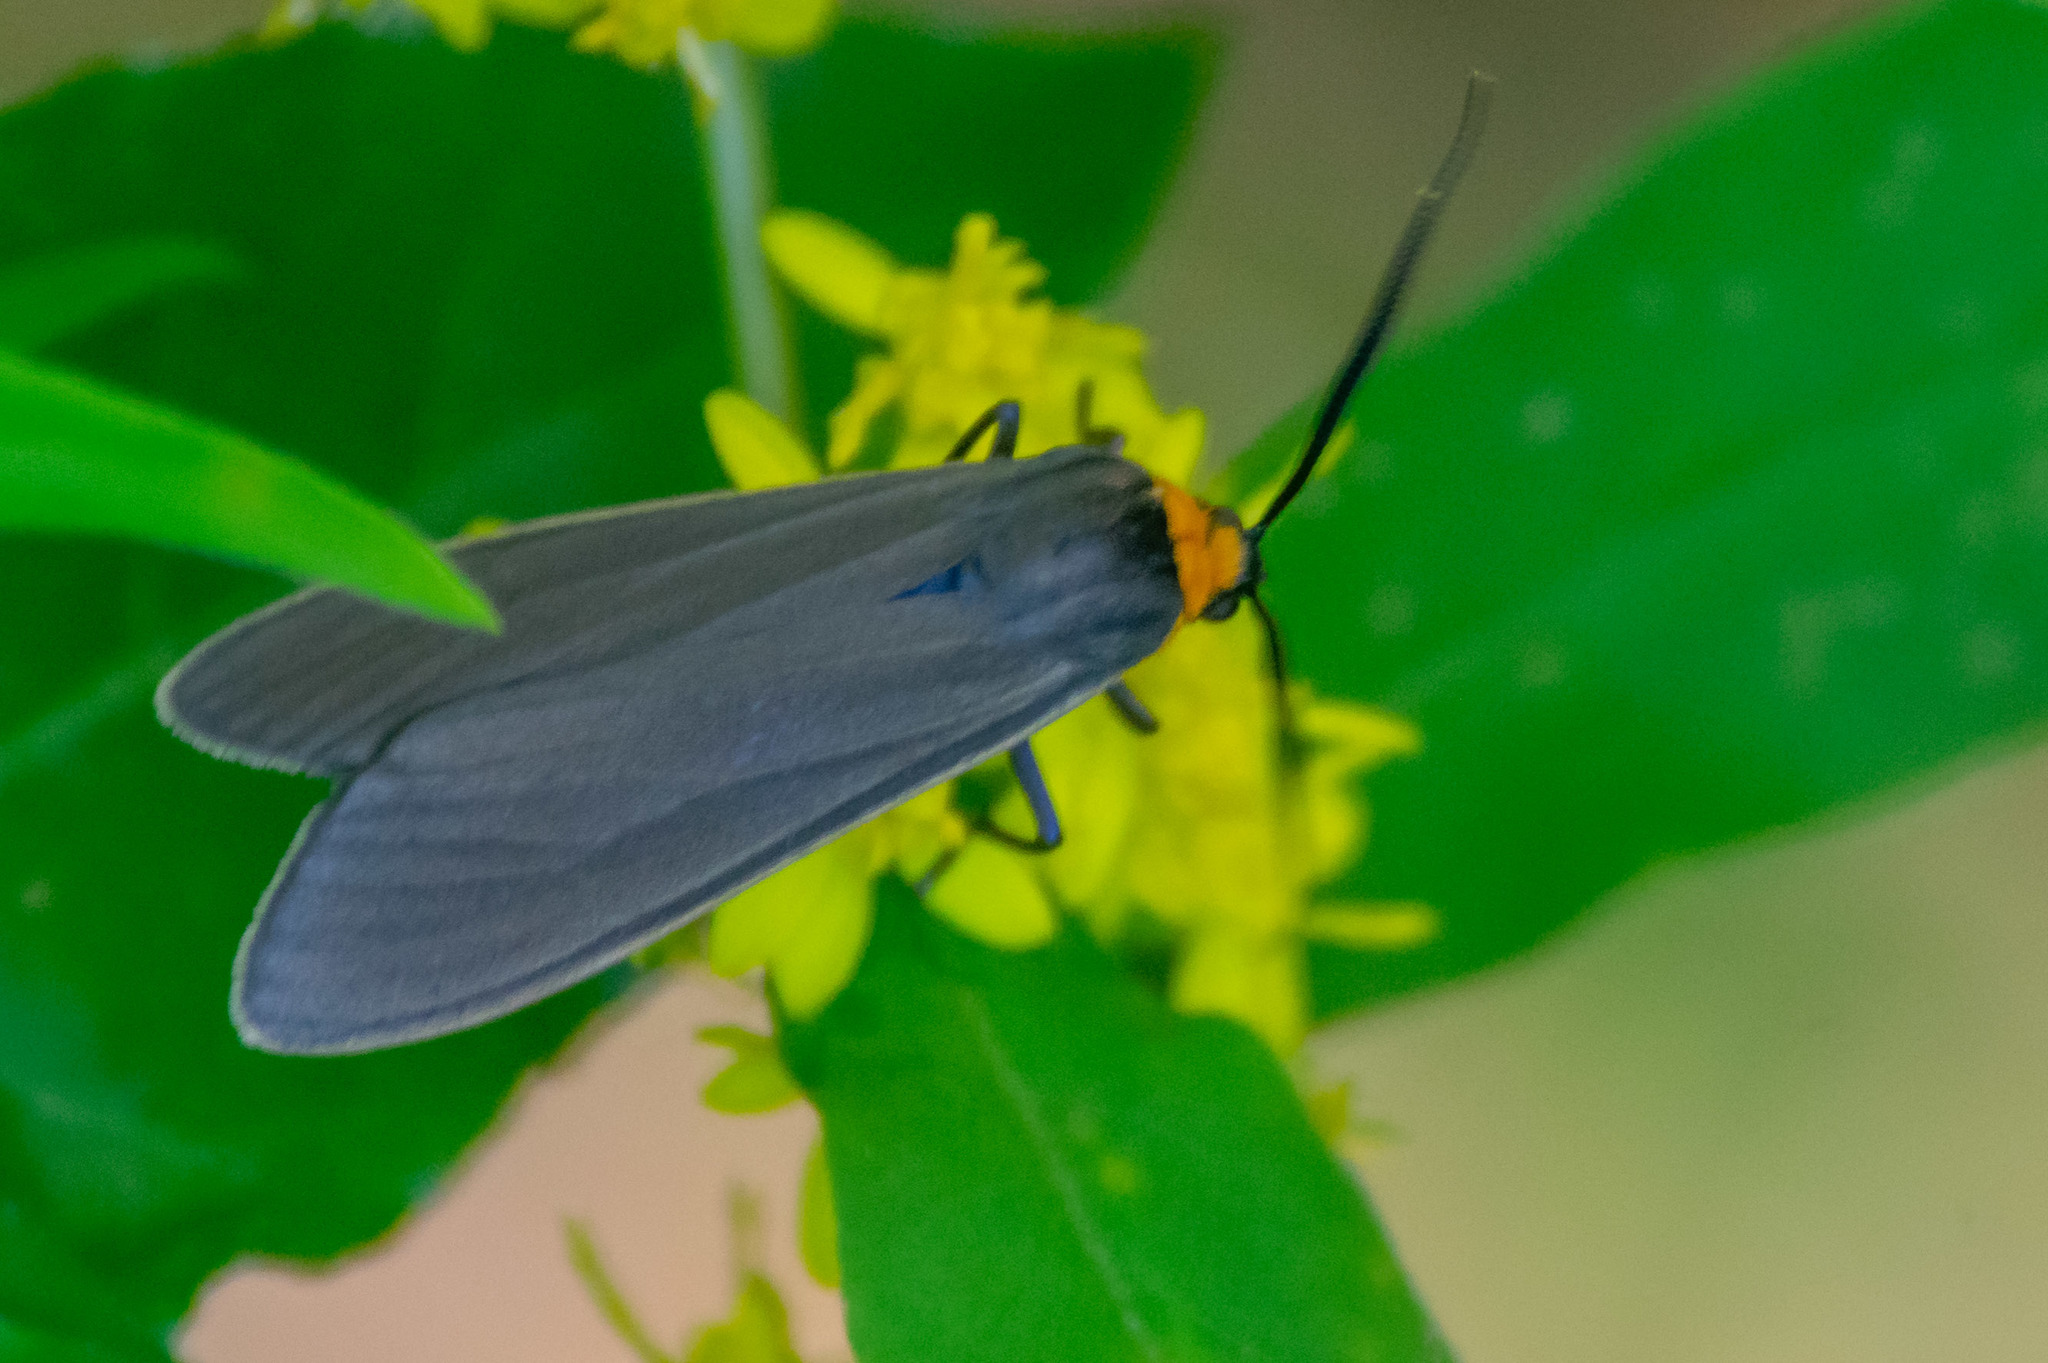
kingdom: Animalia
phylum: Arthropoda
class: Insecta
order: Lepidoptera
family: Erebidae
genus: Cisseps
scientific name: Cisseps fulvicollis
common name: Yellow-collared scape moth
